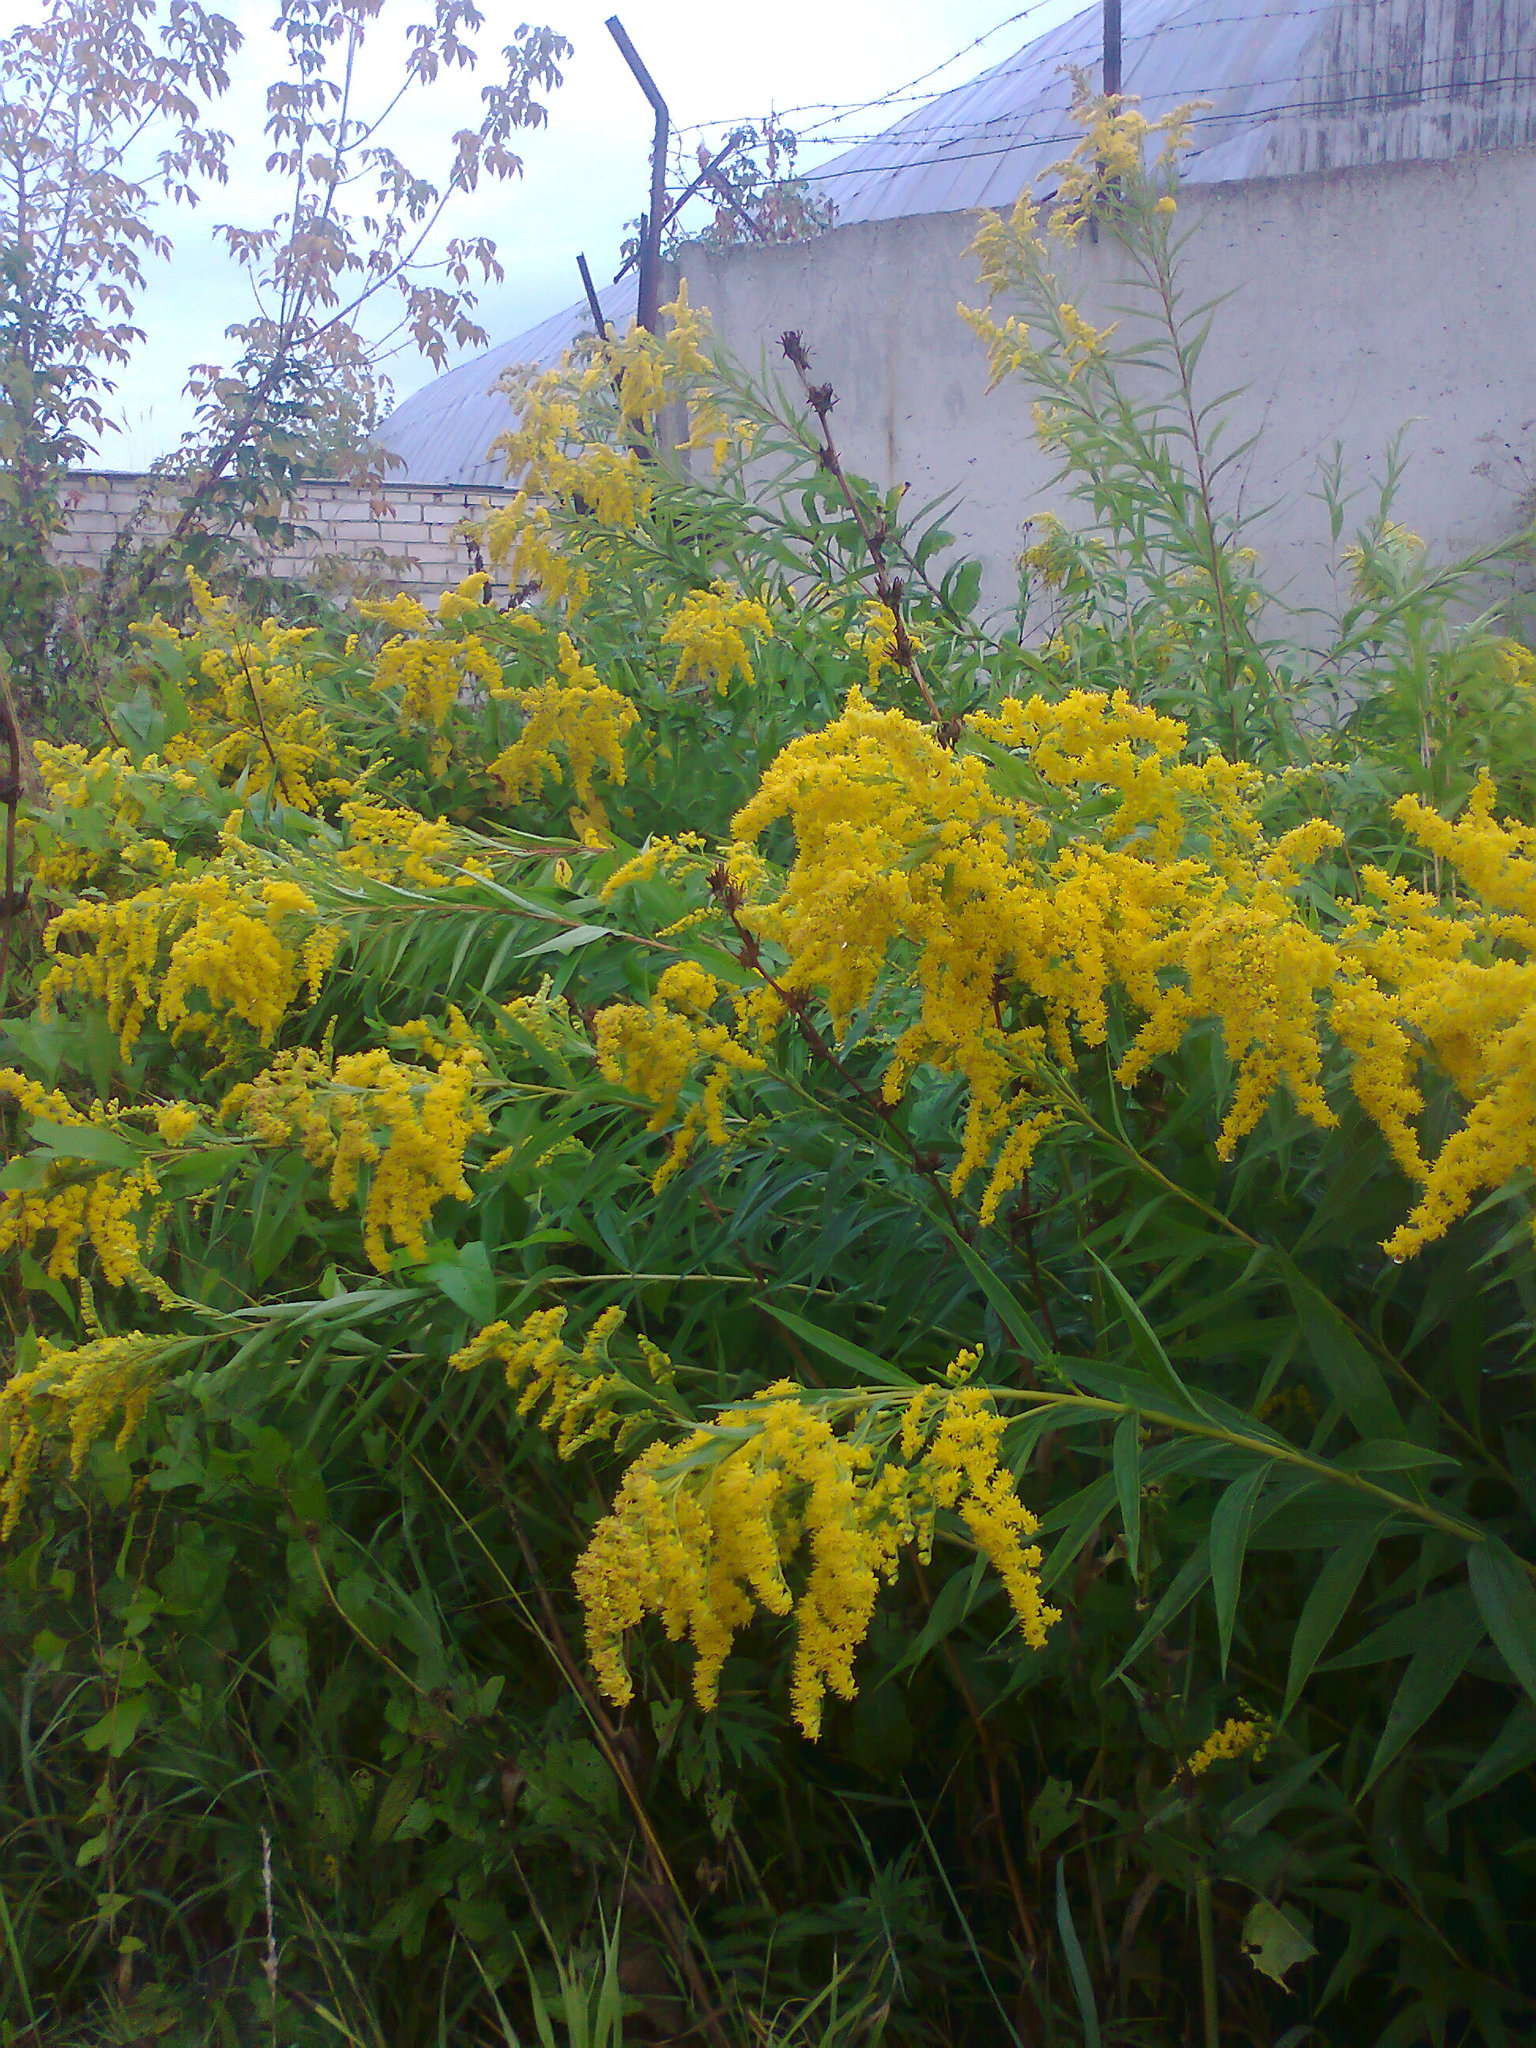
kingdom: Plantae
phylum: Tracheophyta
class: Magnoliopsida
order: Asterales
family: Asteraceae
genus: Solidago
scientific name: Solidago gigantea
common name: Giant goldenrod
